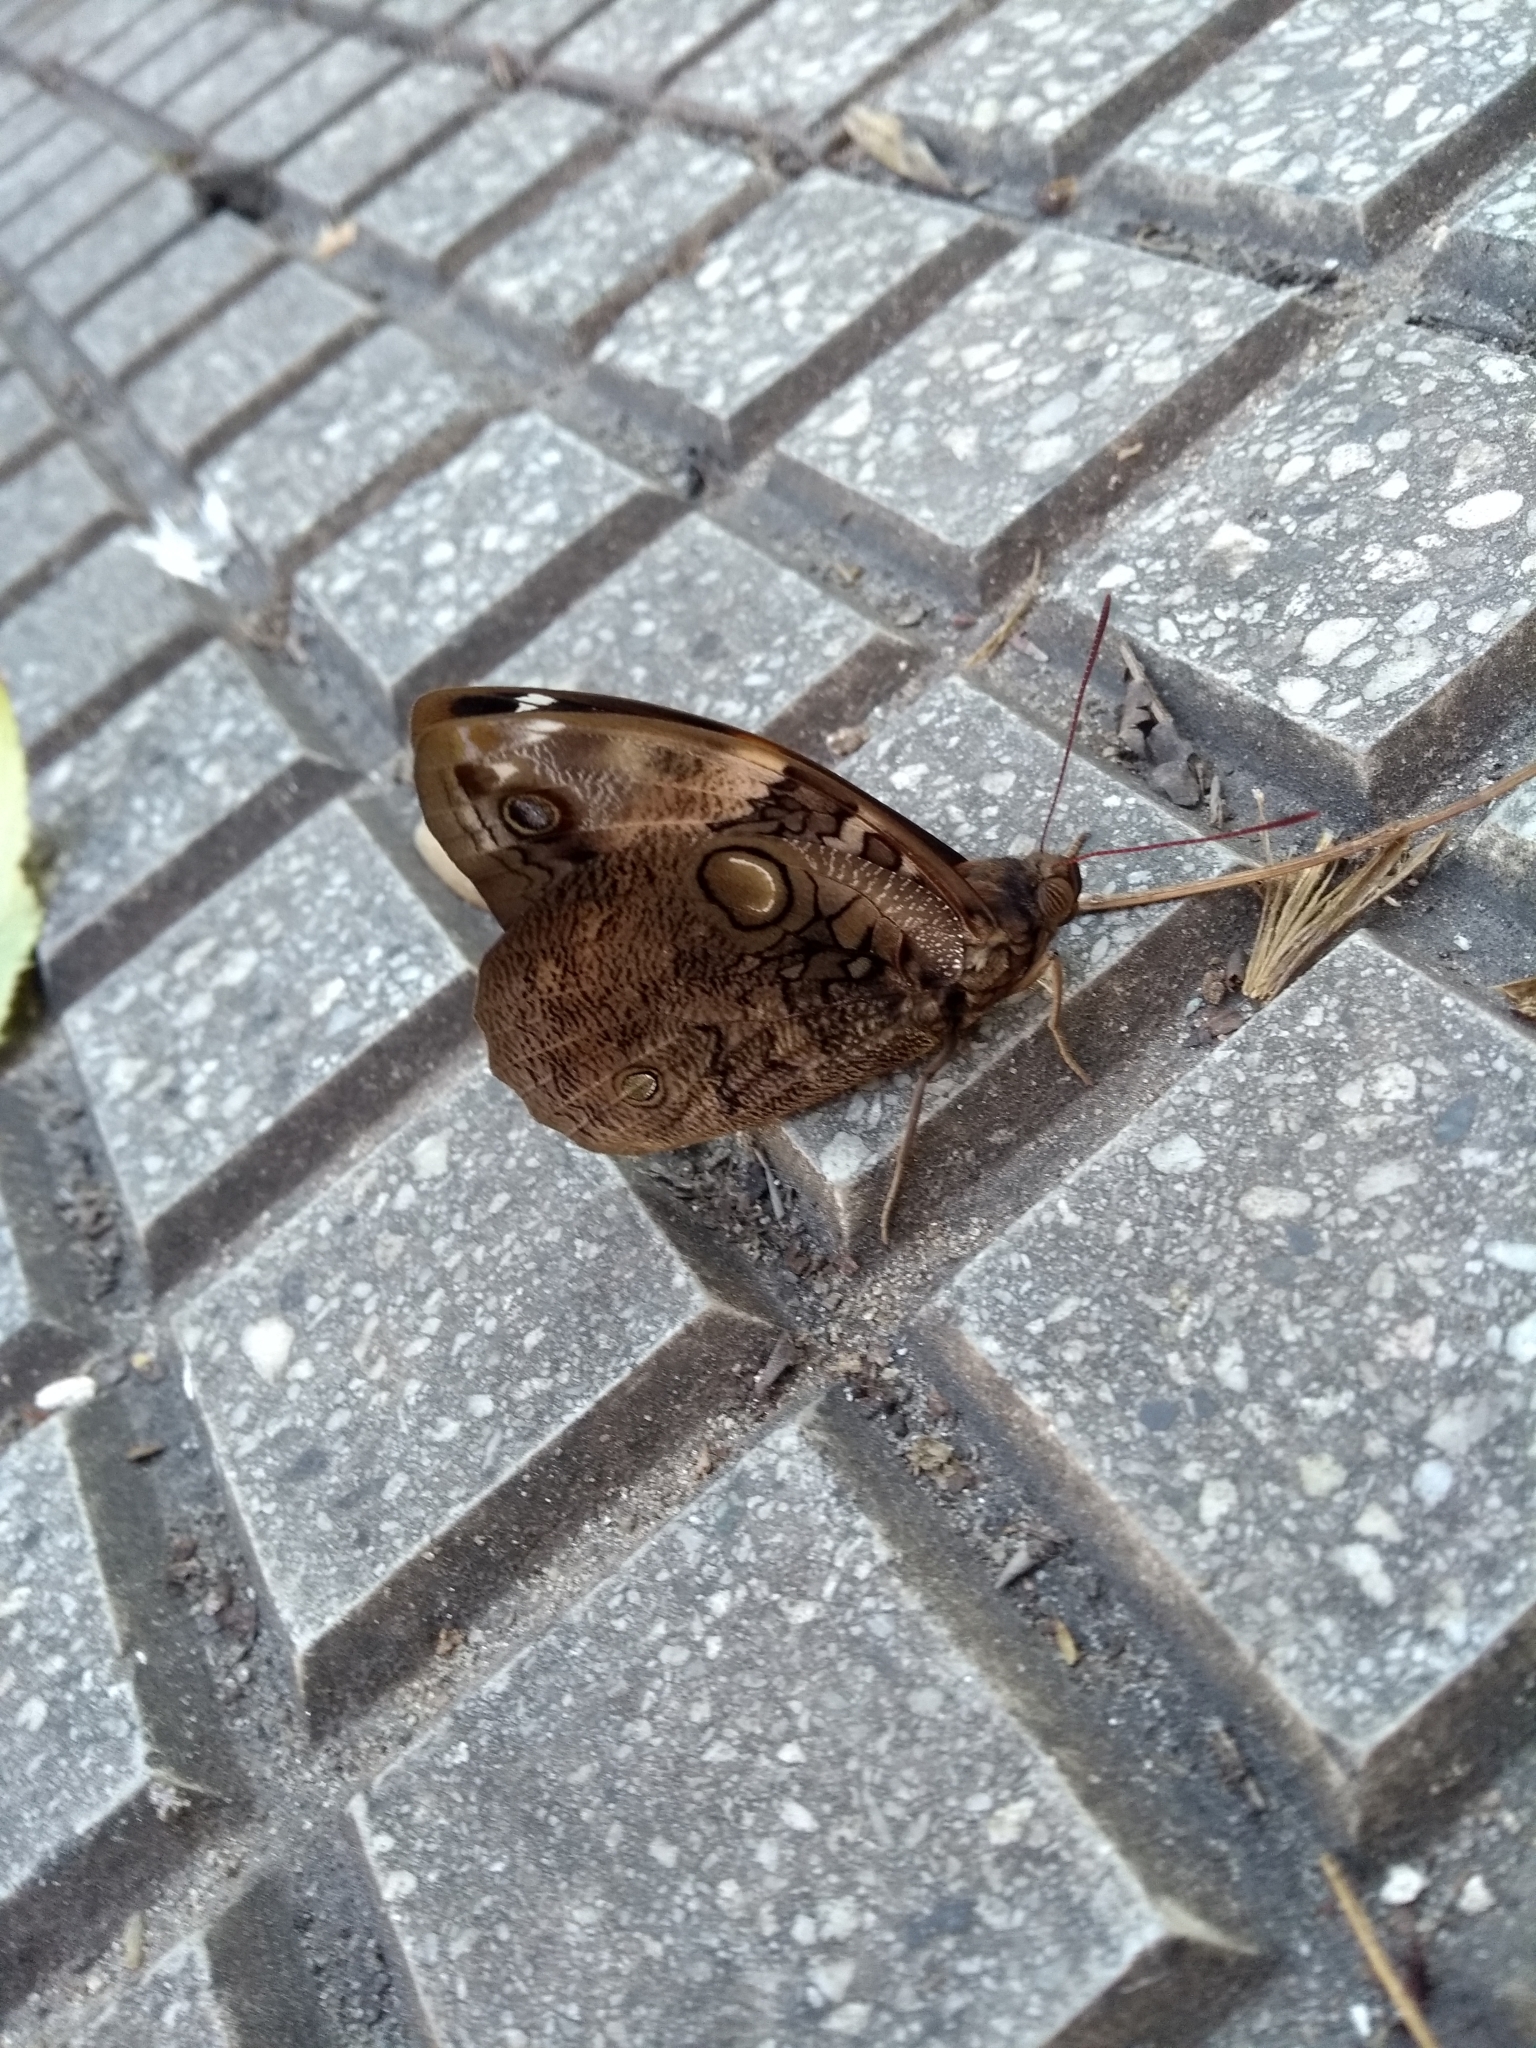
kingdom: Animalia
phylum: Arthropoda
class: Insecta
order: Lepidoptera
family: Nymphalidae
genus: Opsiphanes
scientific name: Opsiphanes invirae
